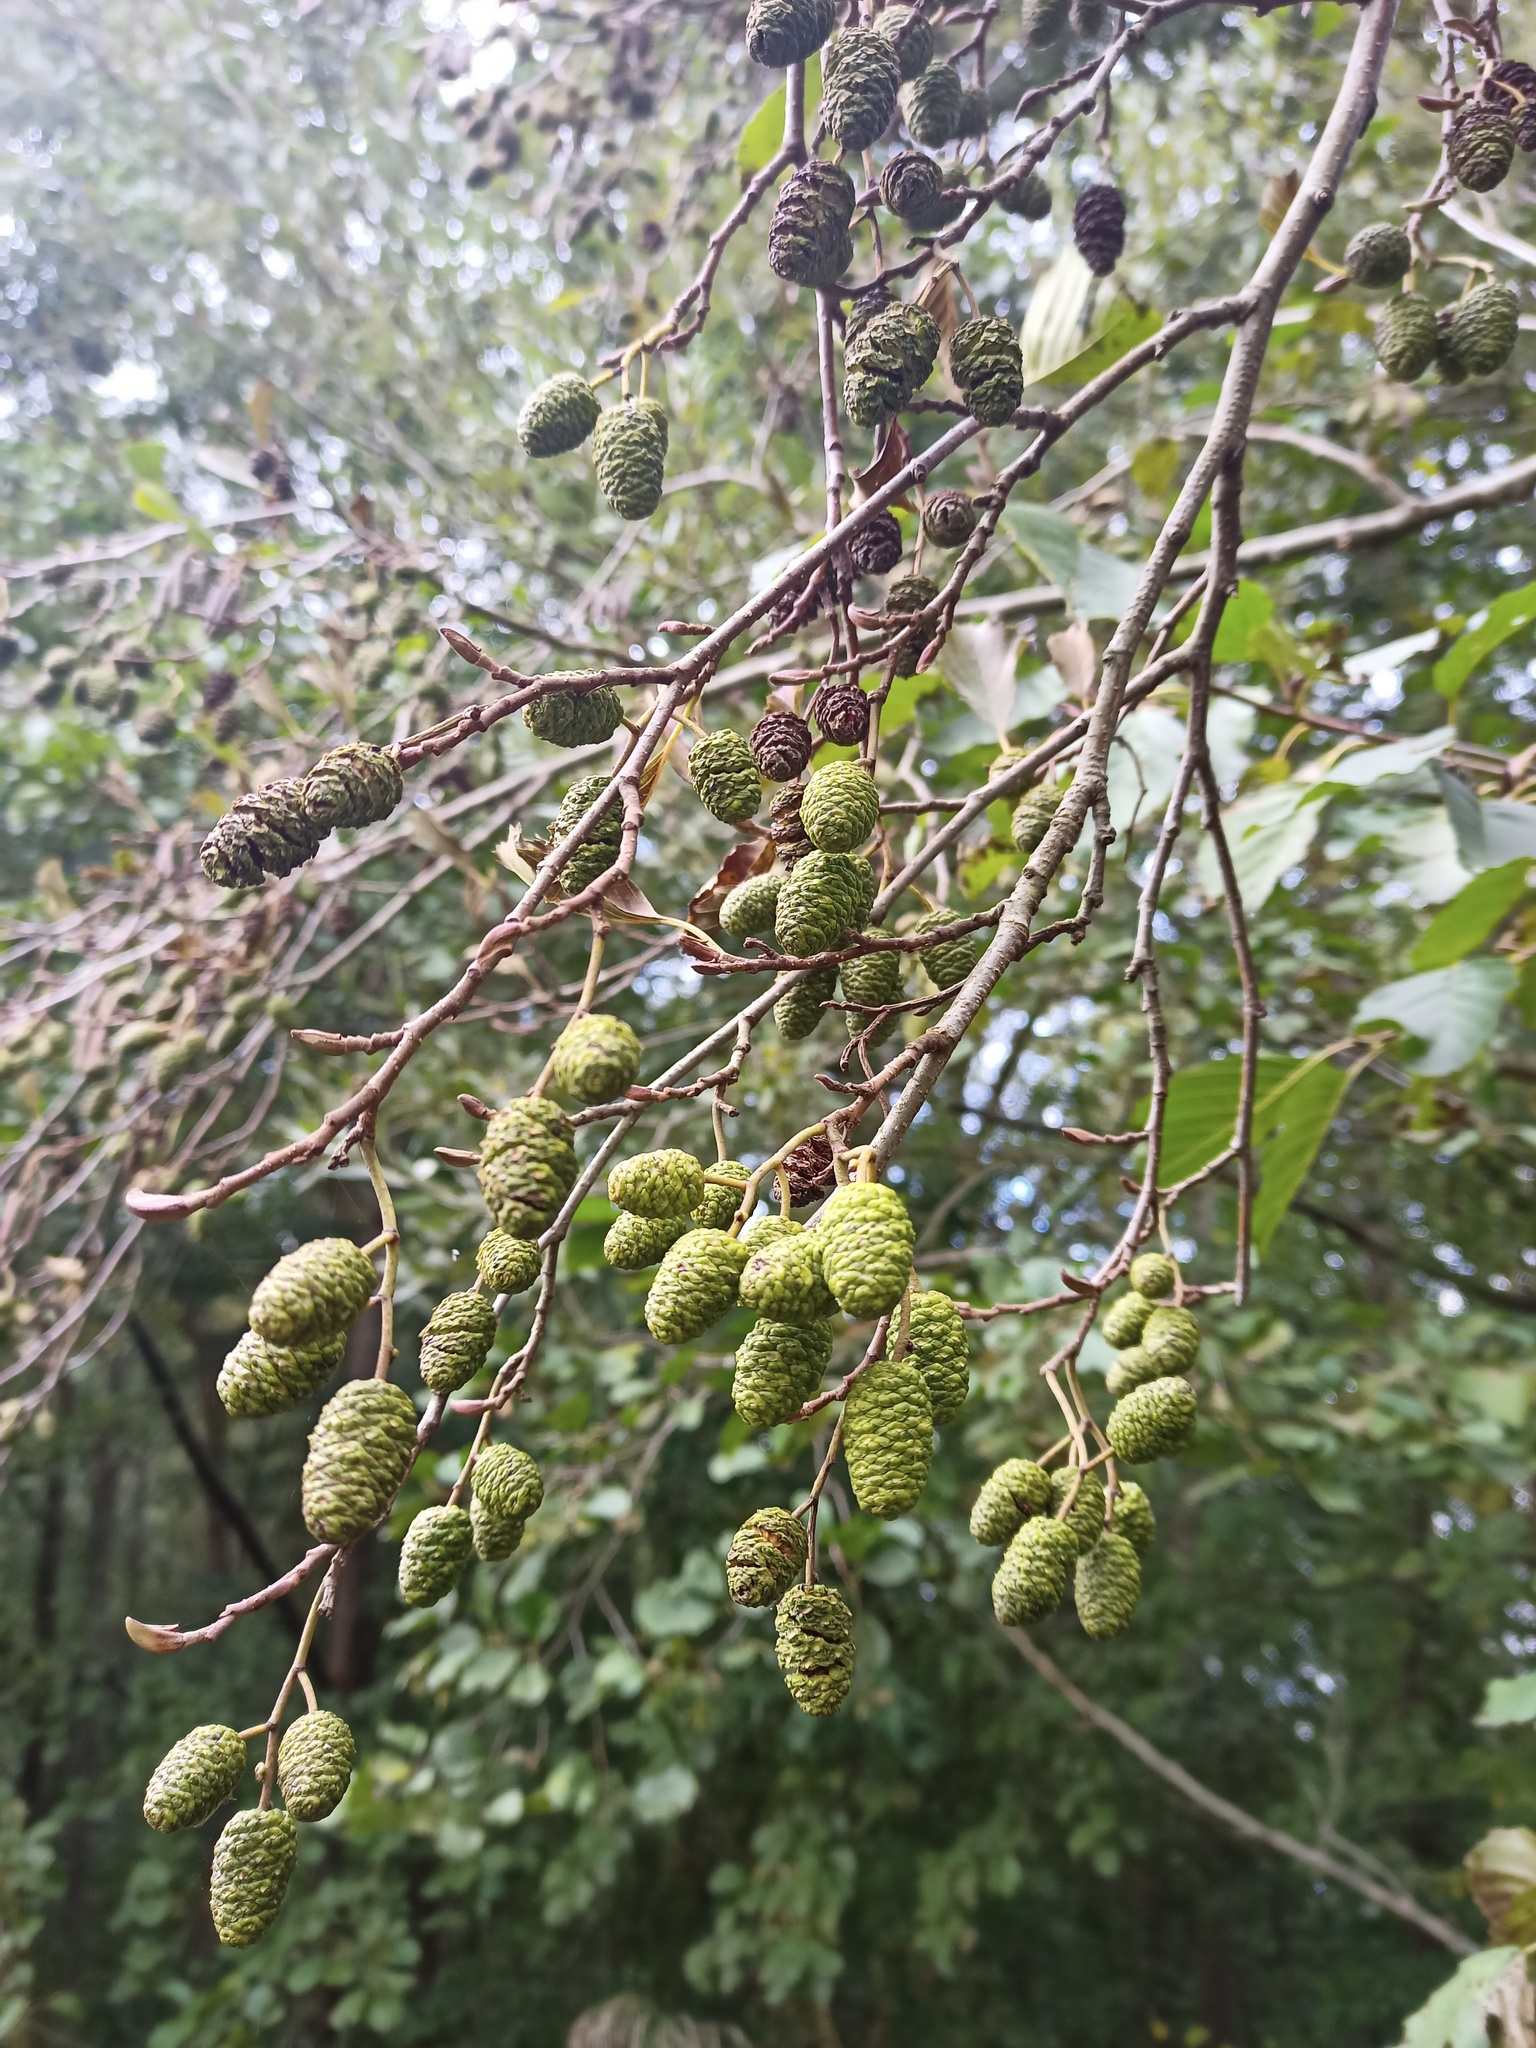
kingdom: Plantae
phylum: Tracheophyta
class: Magnoliopsida
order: Fagales
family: Betulaceae
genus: Alnus
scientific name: Alnus glutinosa
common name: Black alder
